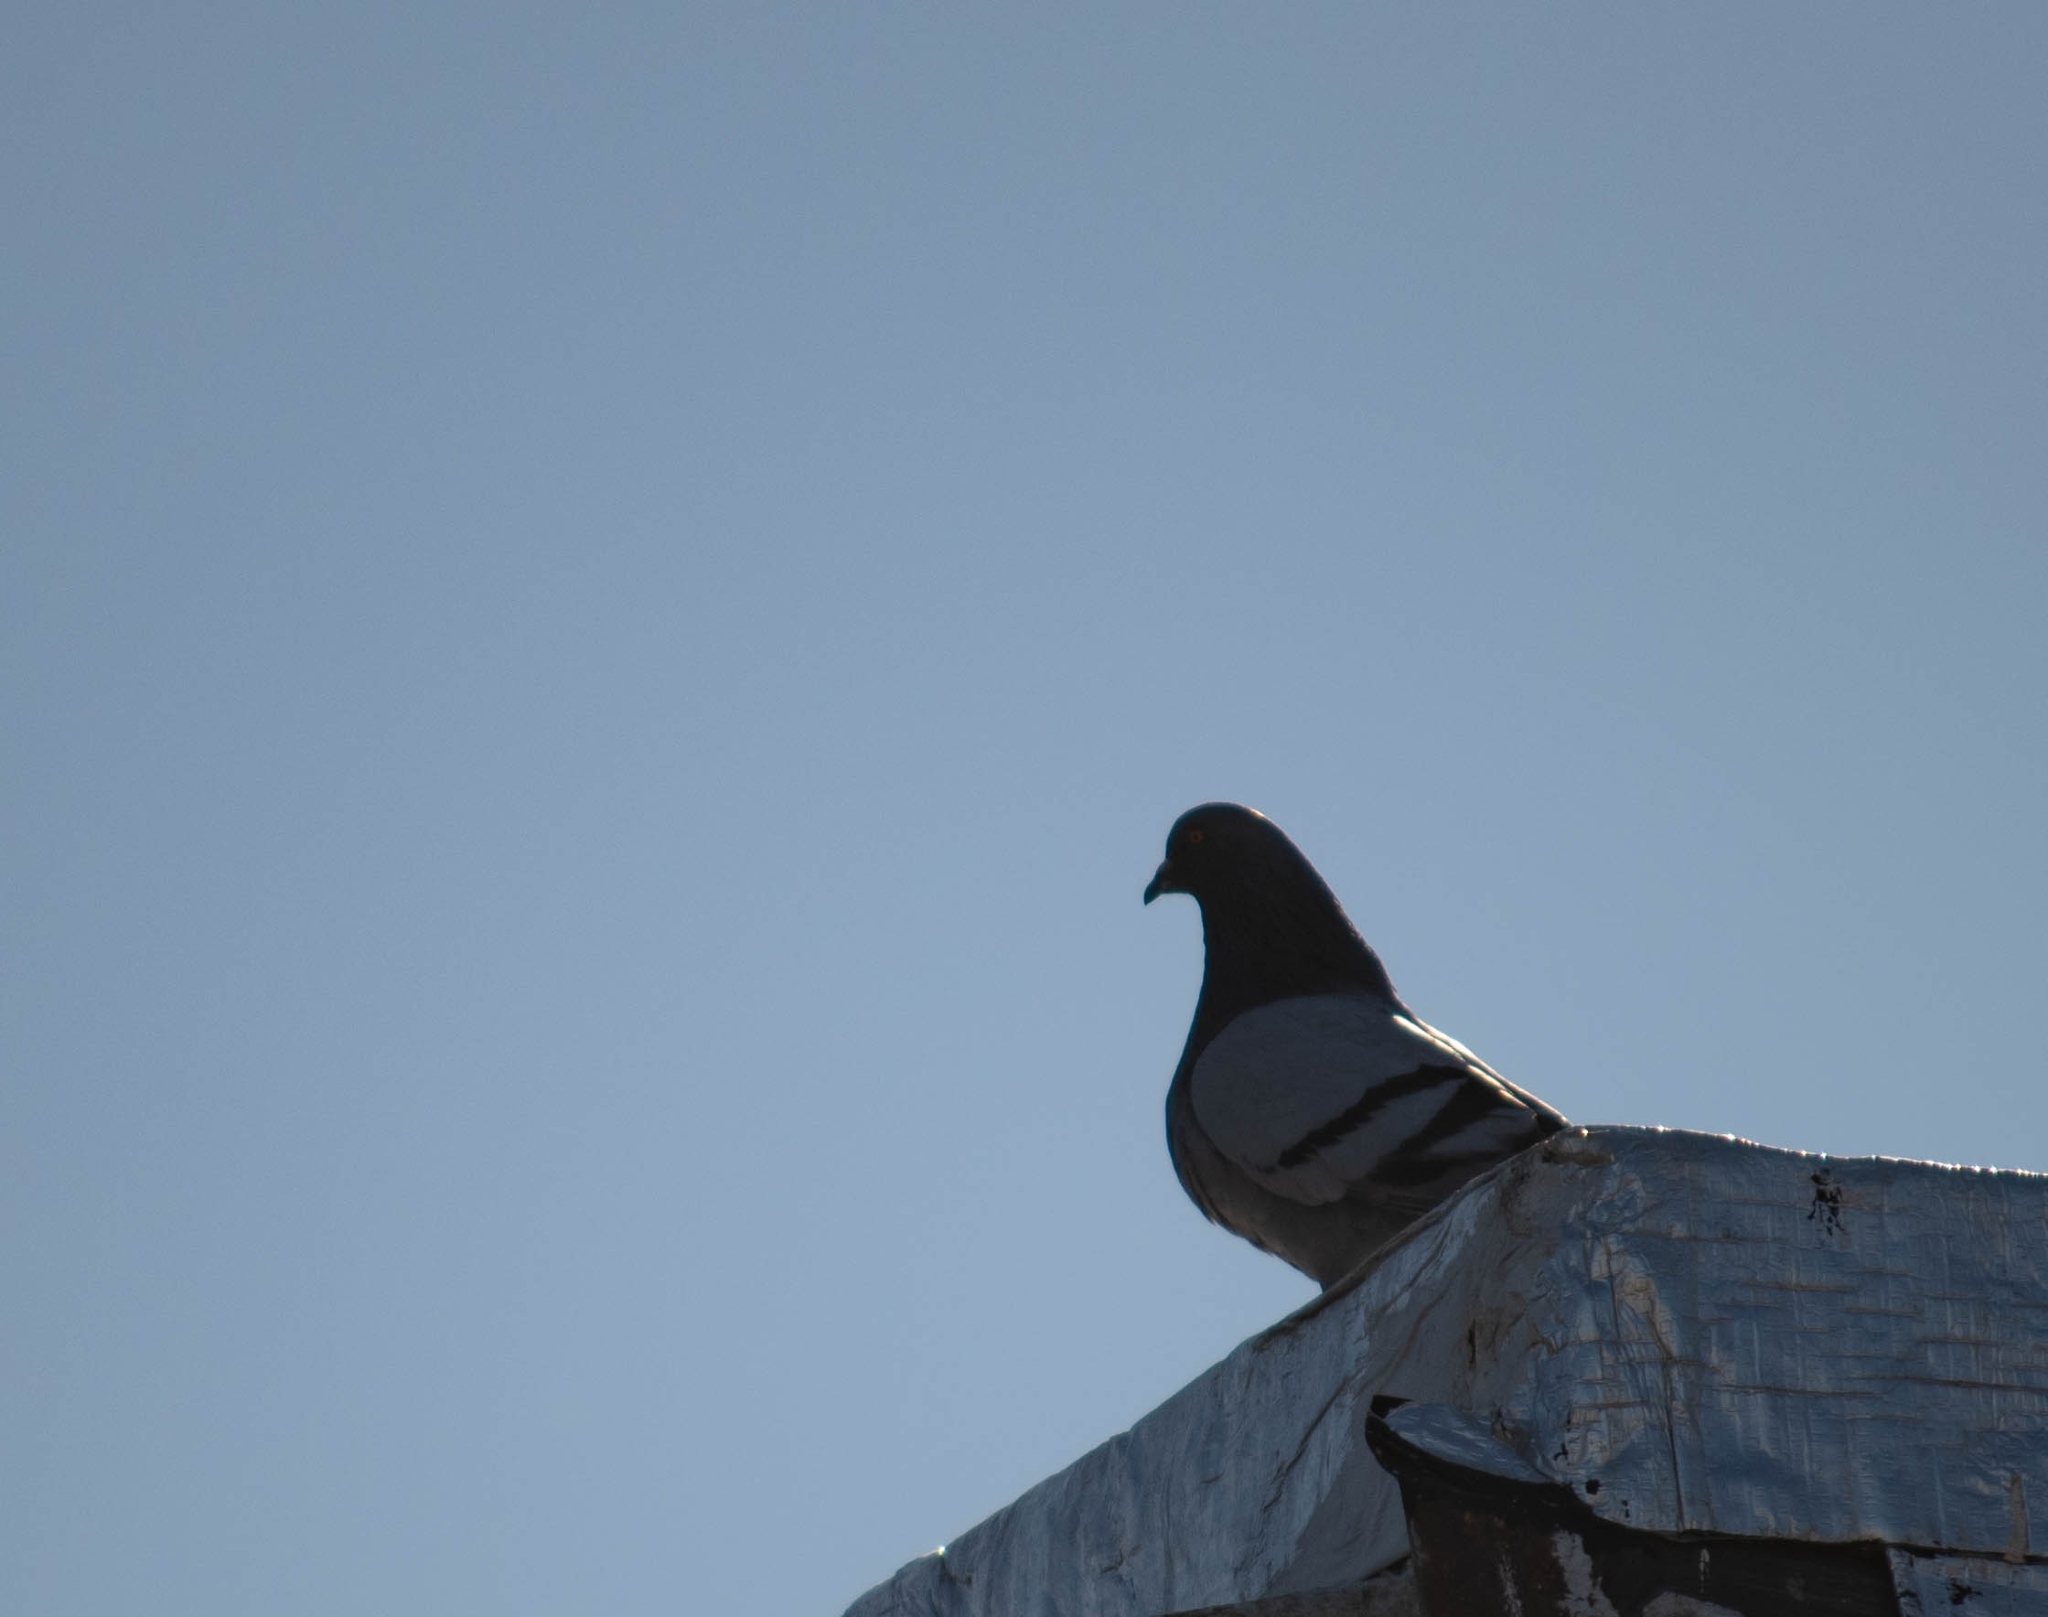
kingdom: Animalia
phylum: Chordata
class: Aves
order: Columbiformes
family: Columbidae
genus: Columba
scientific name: Columba livia
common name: Rock pigeon
